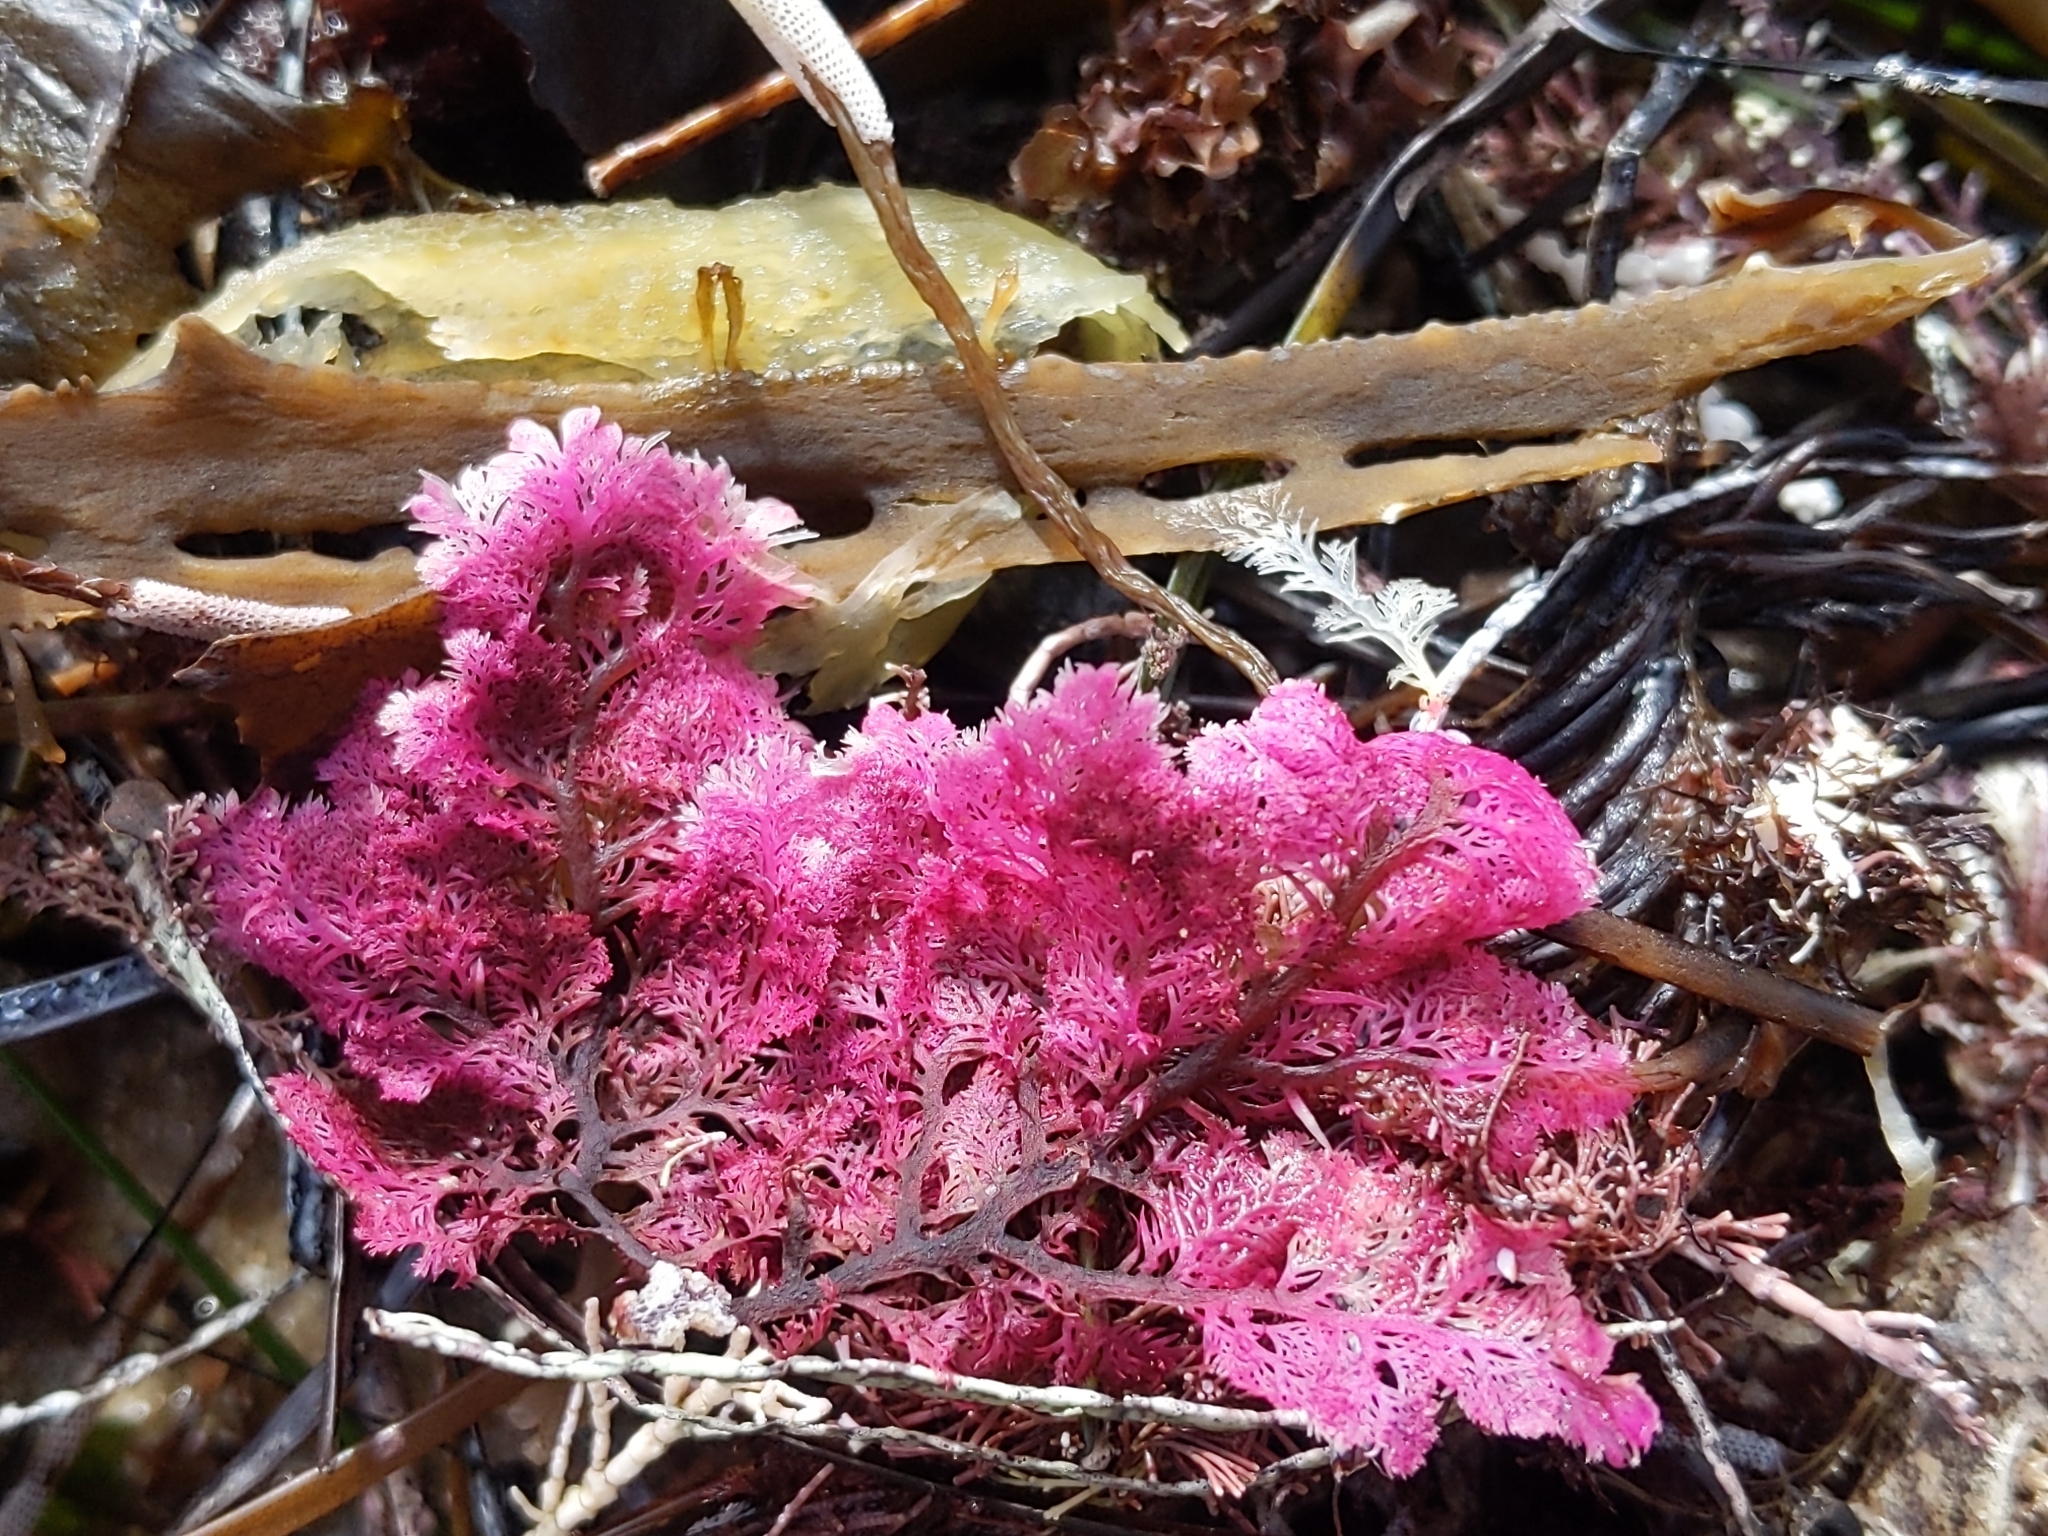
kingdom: Plantae
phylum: Rhodophyta
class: Florideophyceae
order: Plocamiales
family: Plocamiaceae
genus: Plocamium
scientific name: Plocamium cartilagineum
